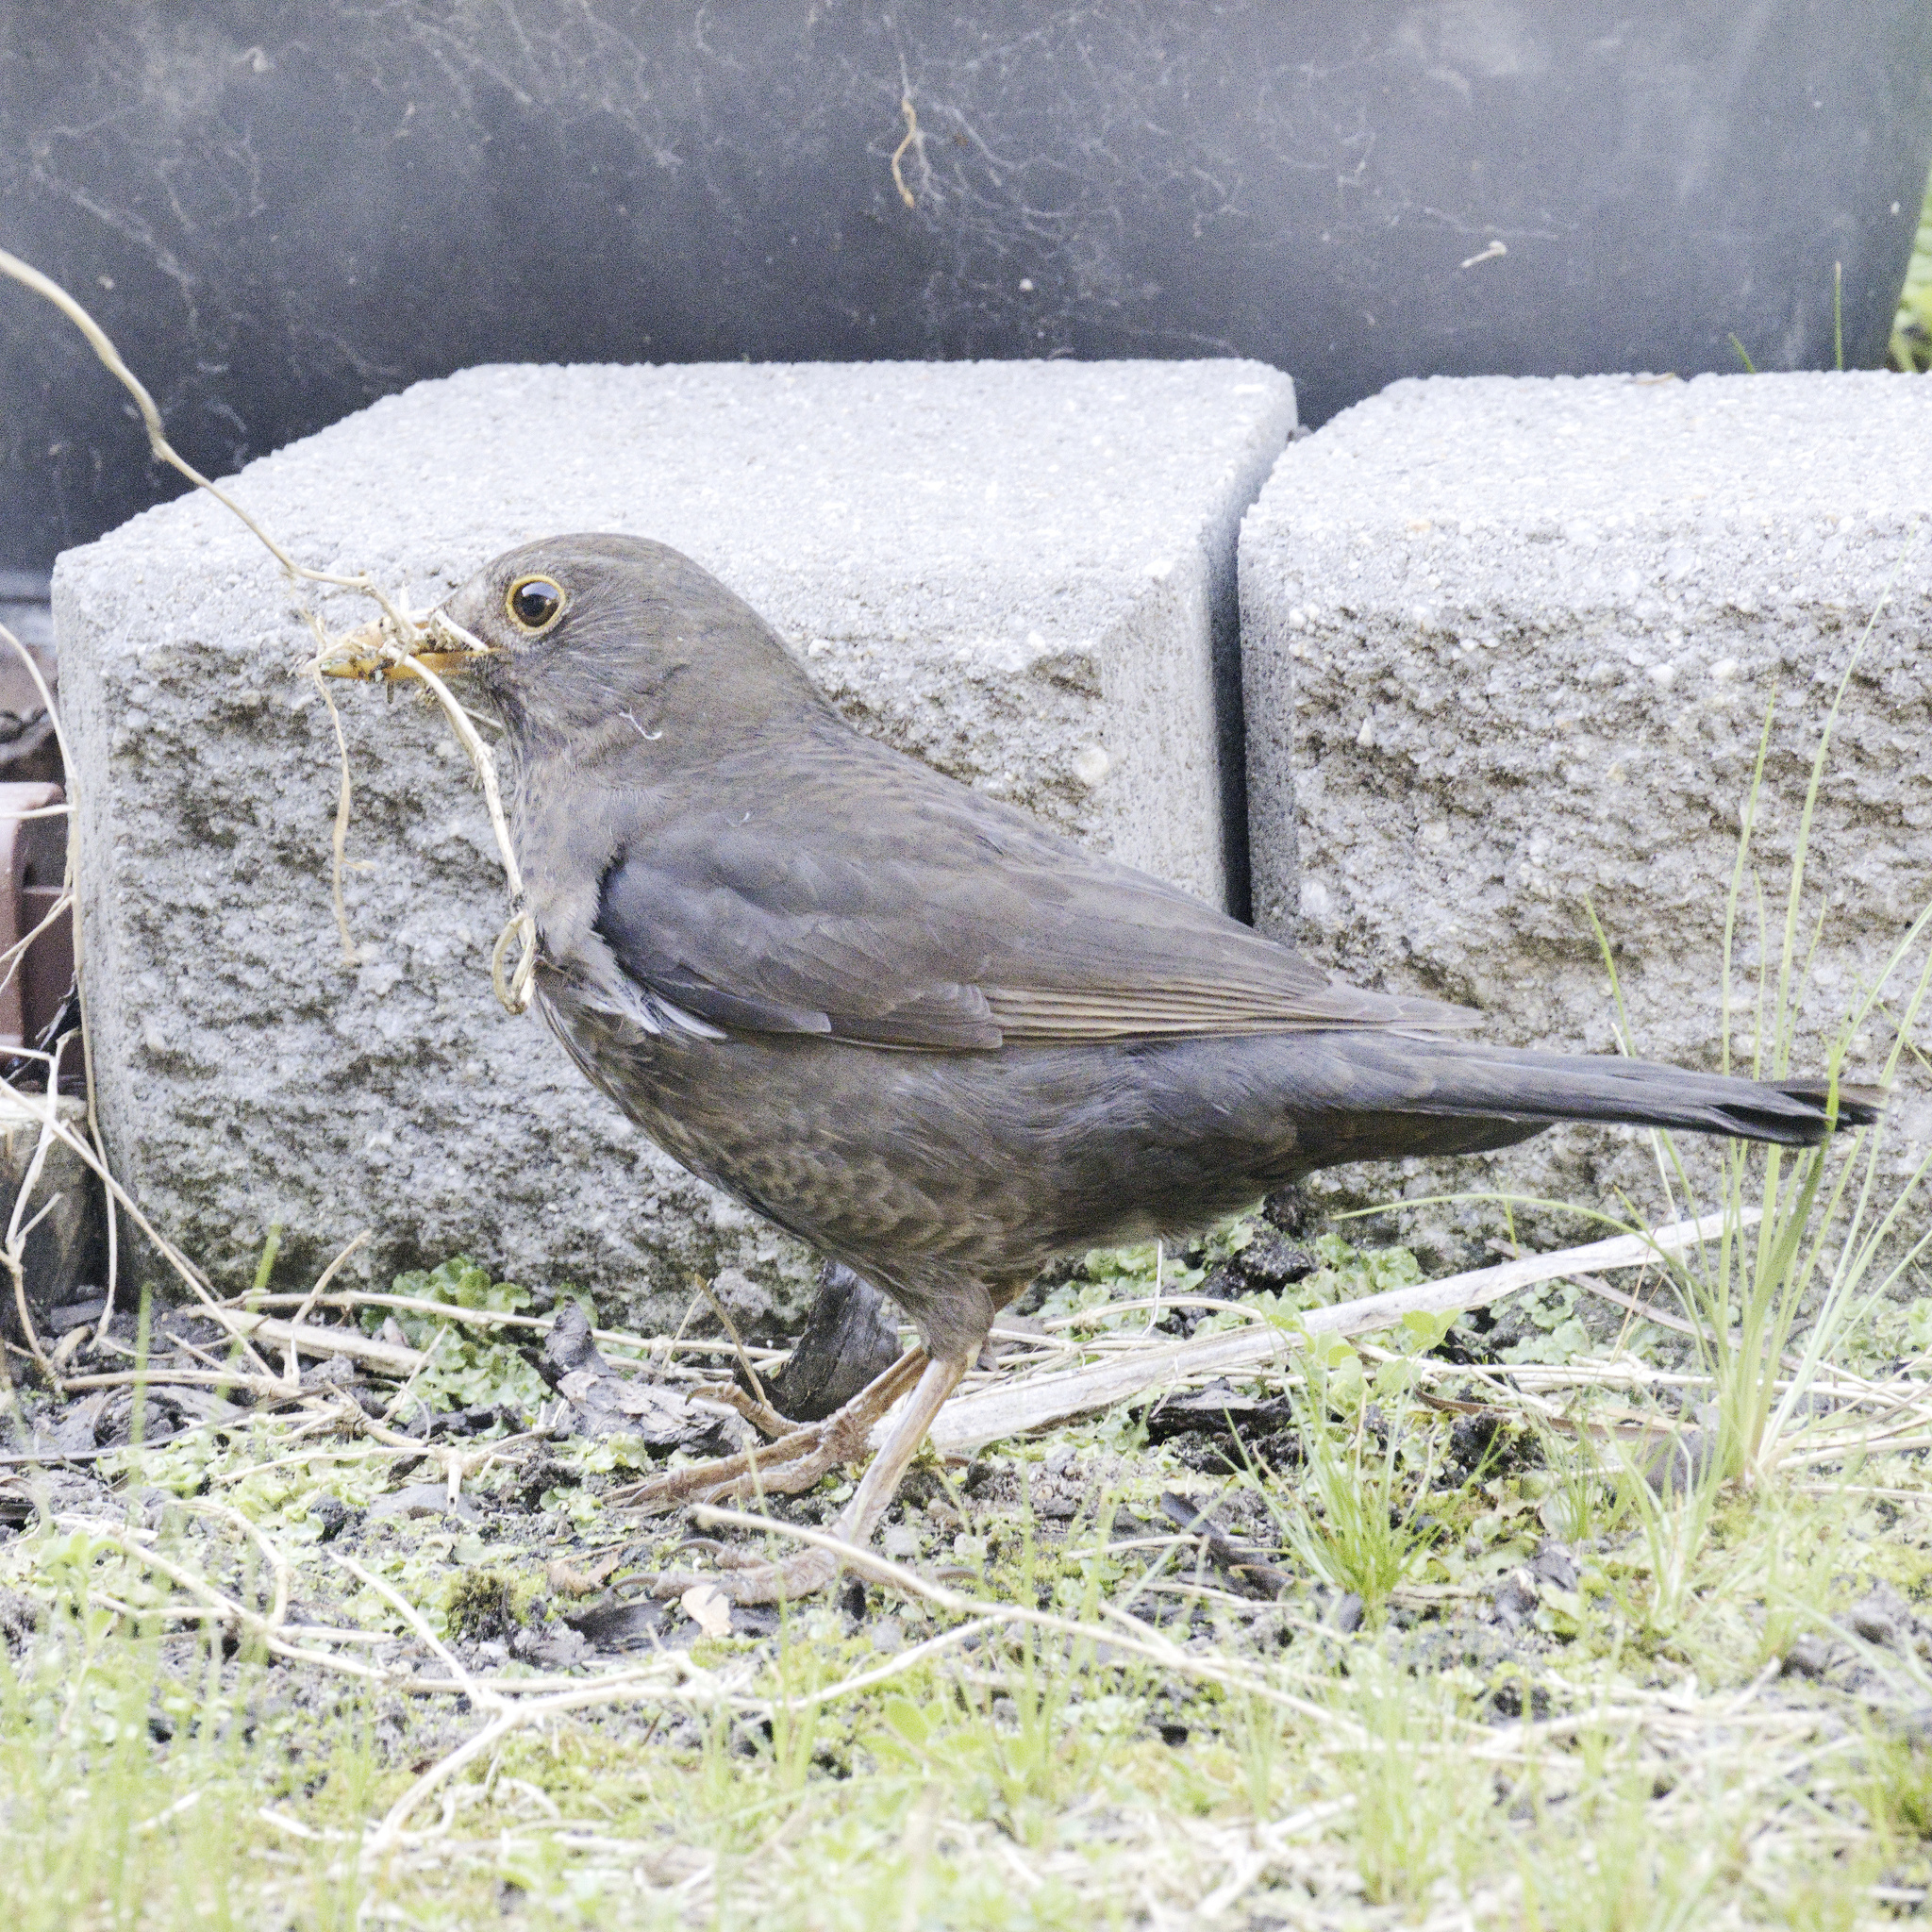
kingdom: Animalia
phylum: Chordata
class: Aves
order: Passeriformes
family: Turdidae
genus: Turdus
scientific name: Turdus merula
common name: Common blackbird
